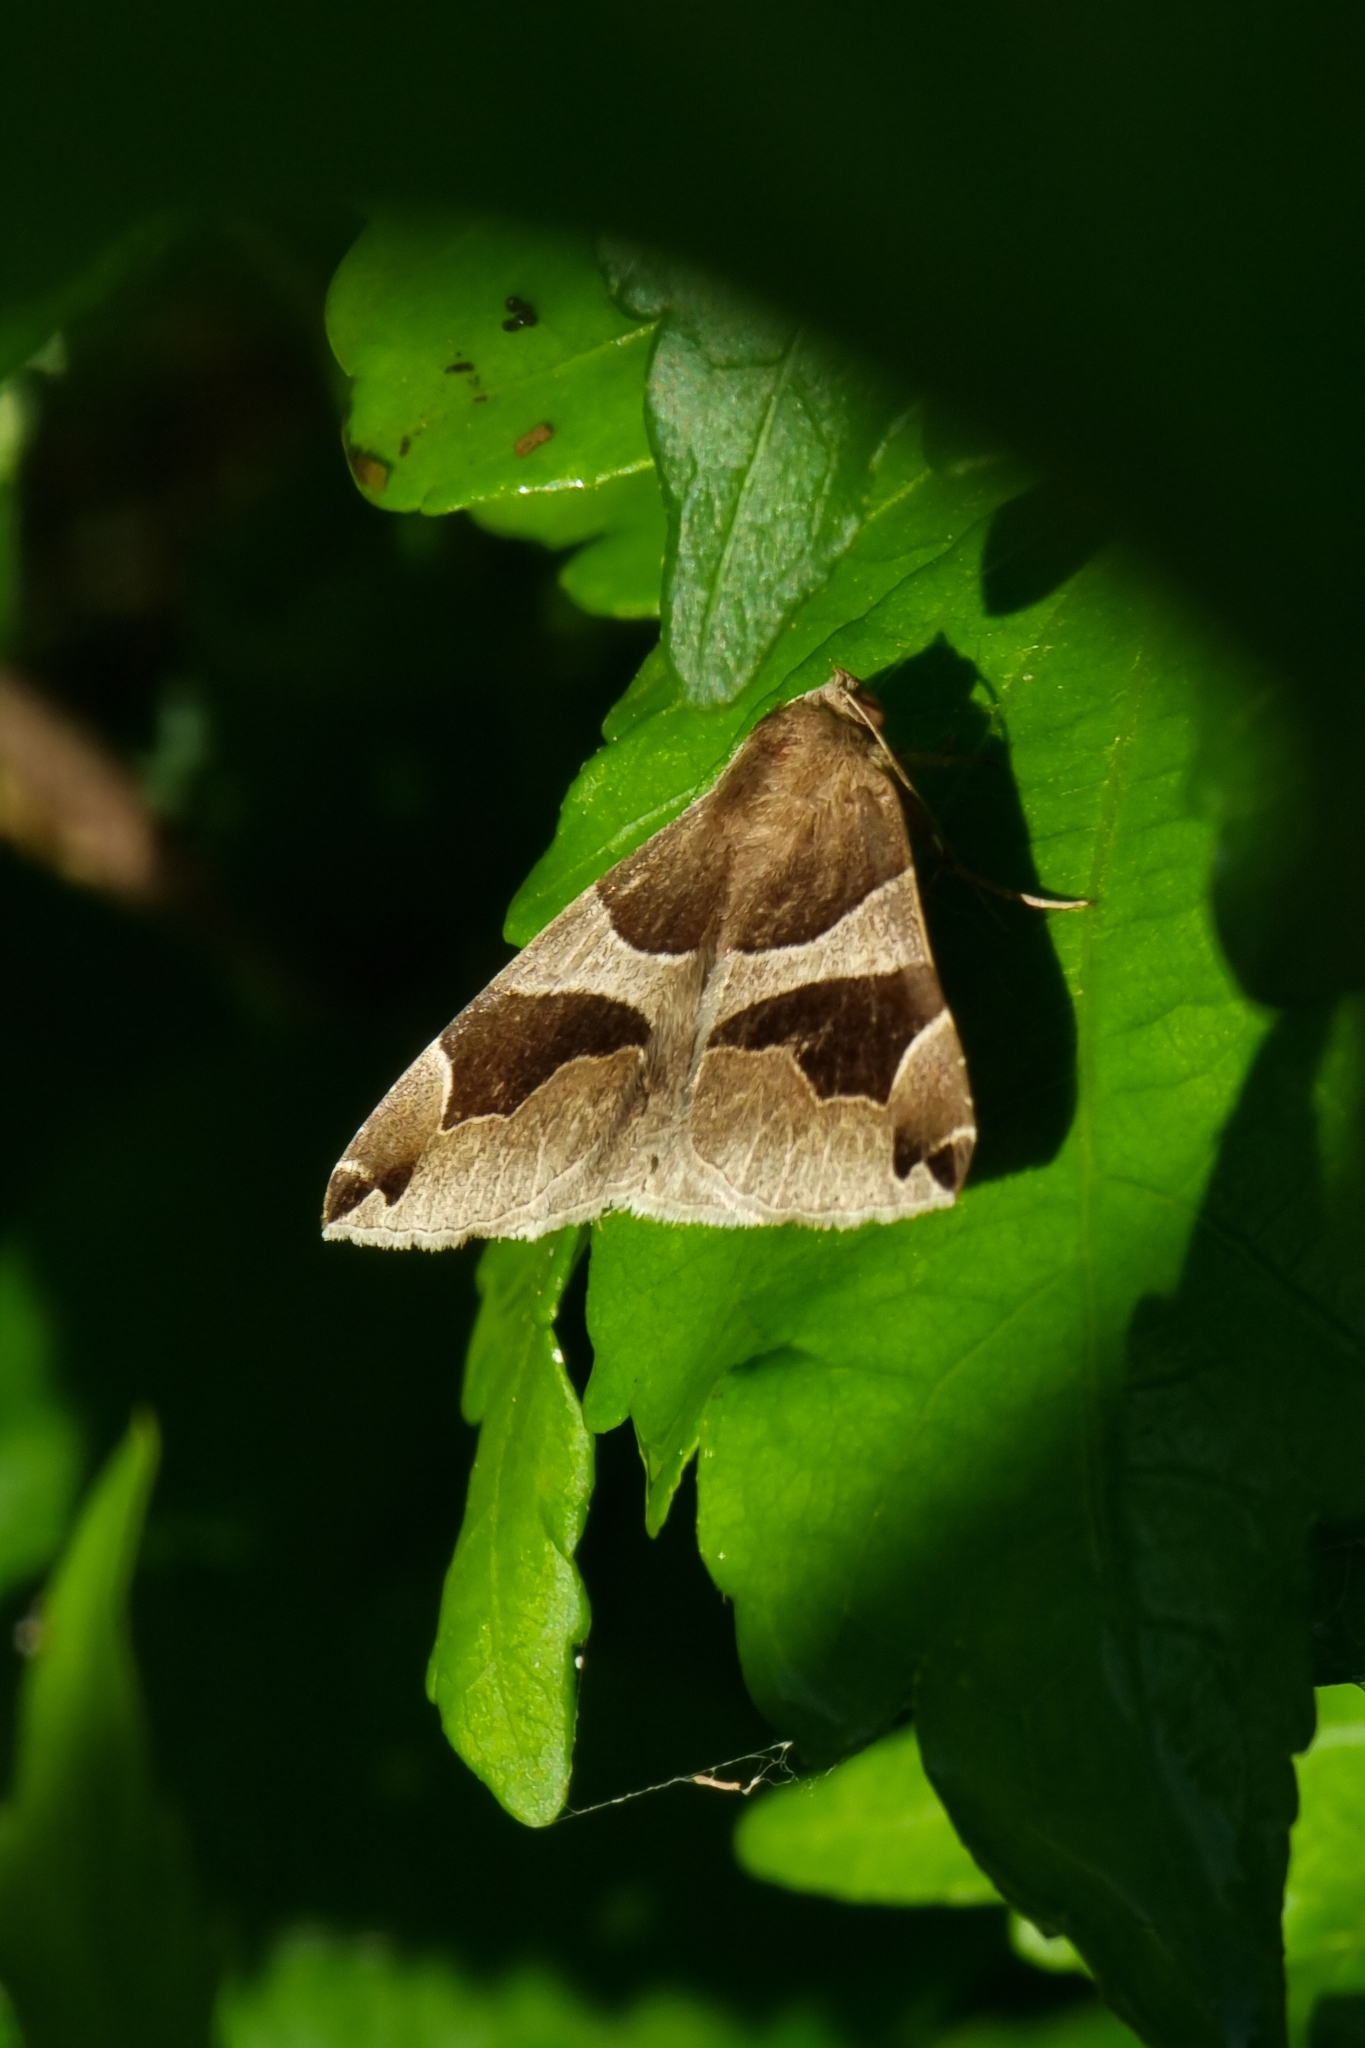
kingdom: Animalia
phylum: Arthropoda
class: Insecta
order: Lepidoptera
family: Erebidae
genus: Dysgonia
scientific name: Dysgonia algira
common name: Passenger
